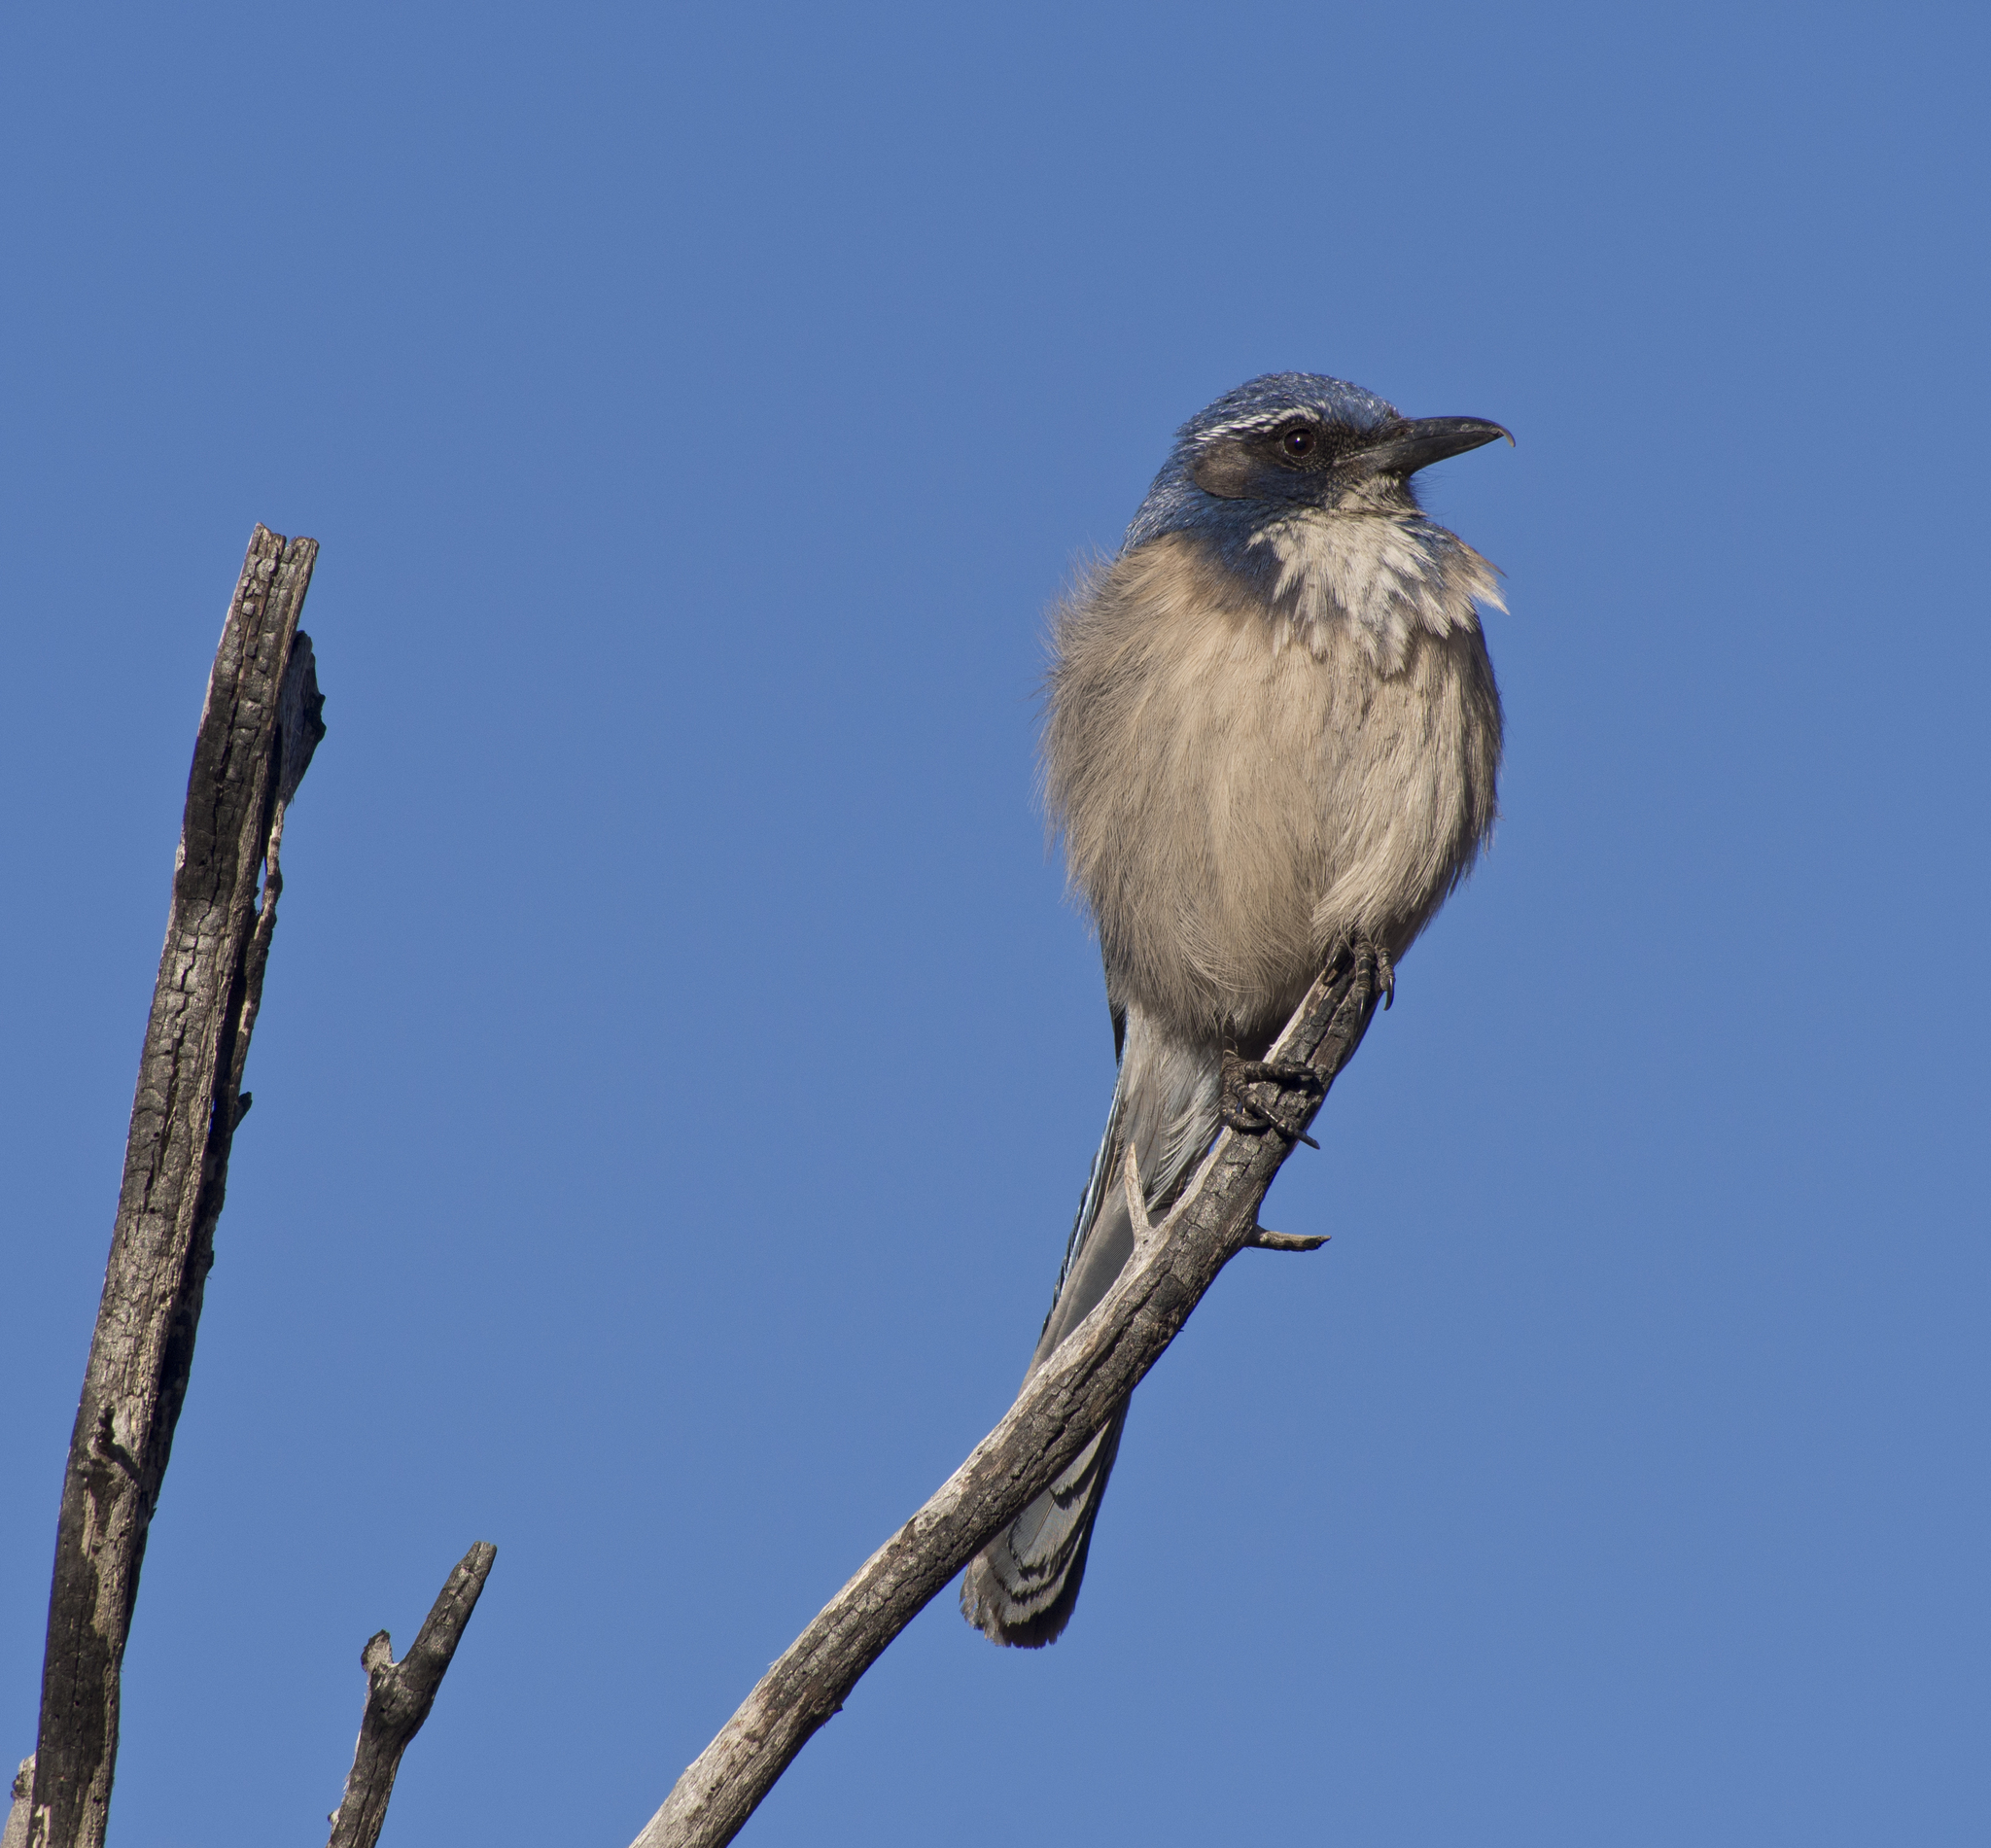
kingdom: Animalia
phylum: Chordata
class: Aves
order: Passeriformes
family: Corvidae
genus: Aphelocoma
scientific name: Aphelocoma californica
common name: California scrub-jay
